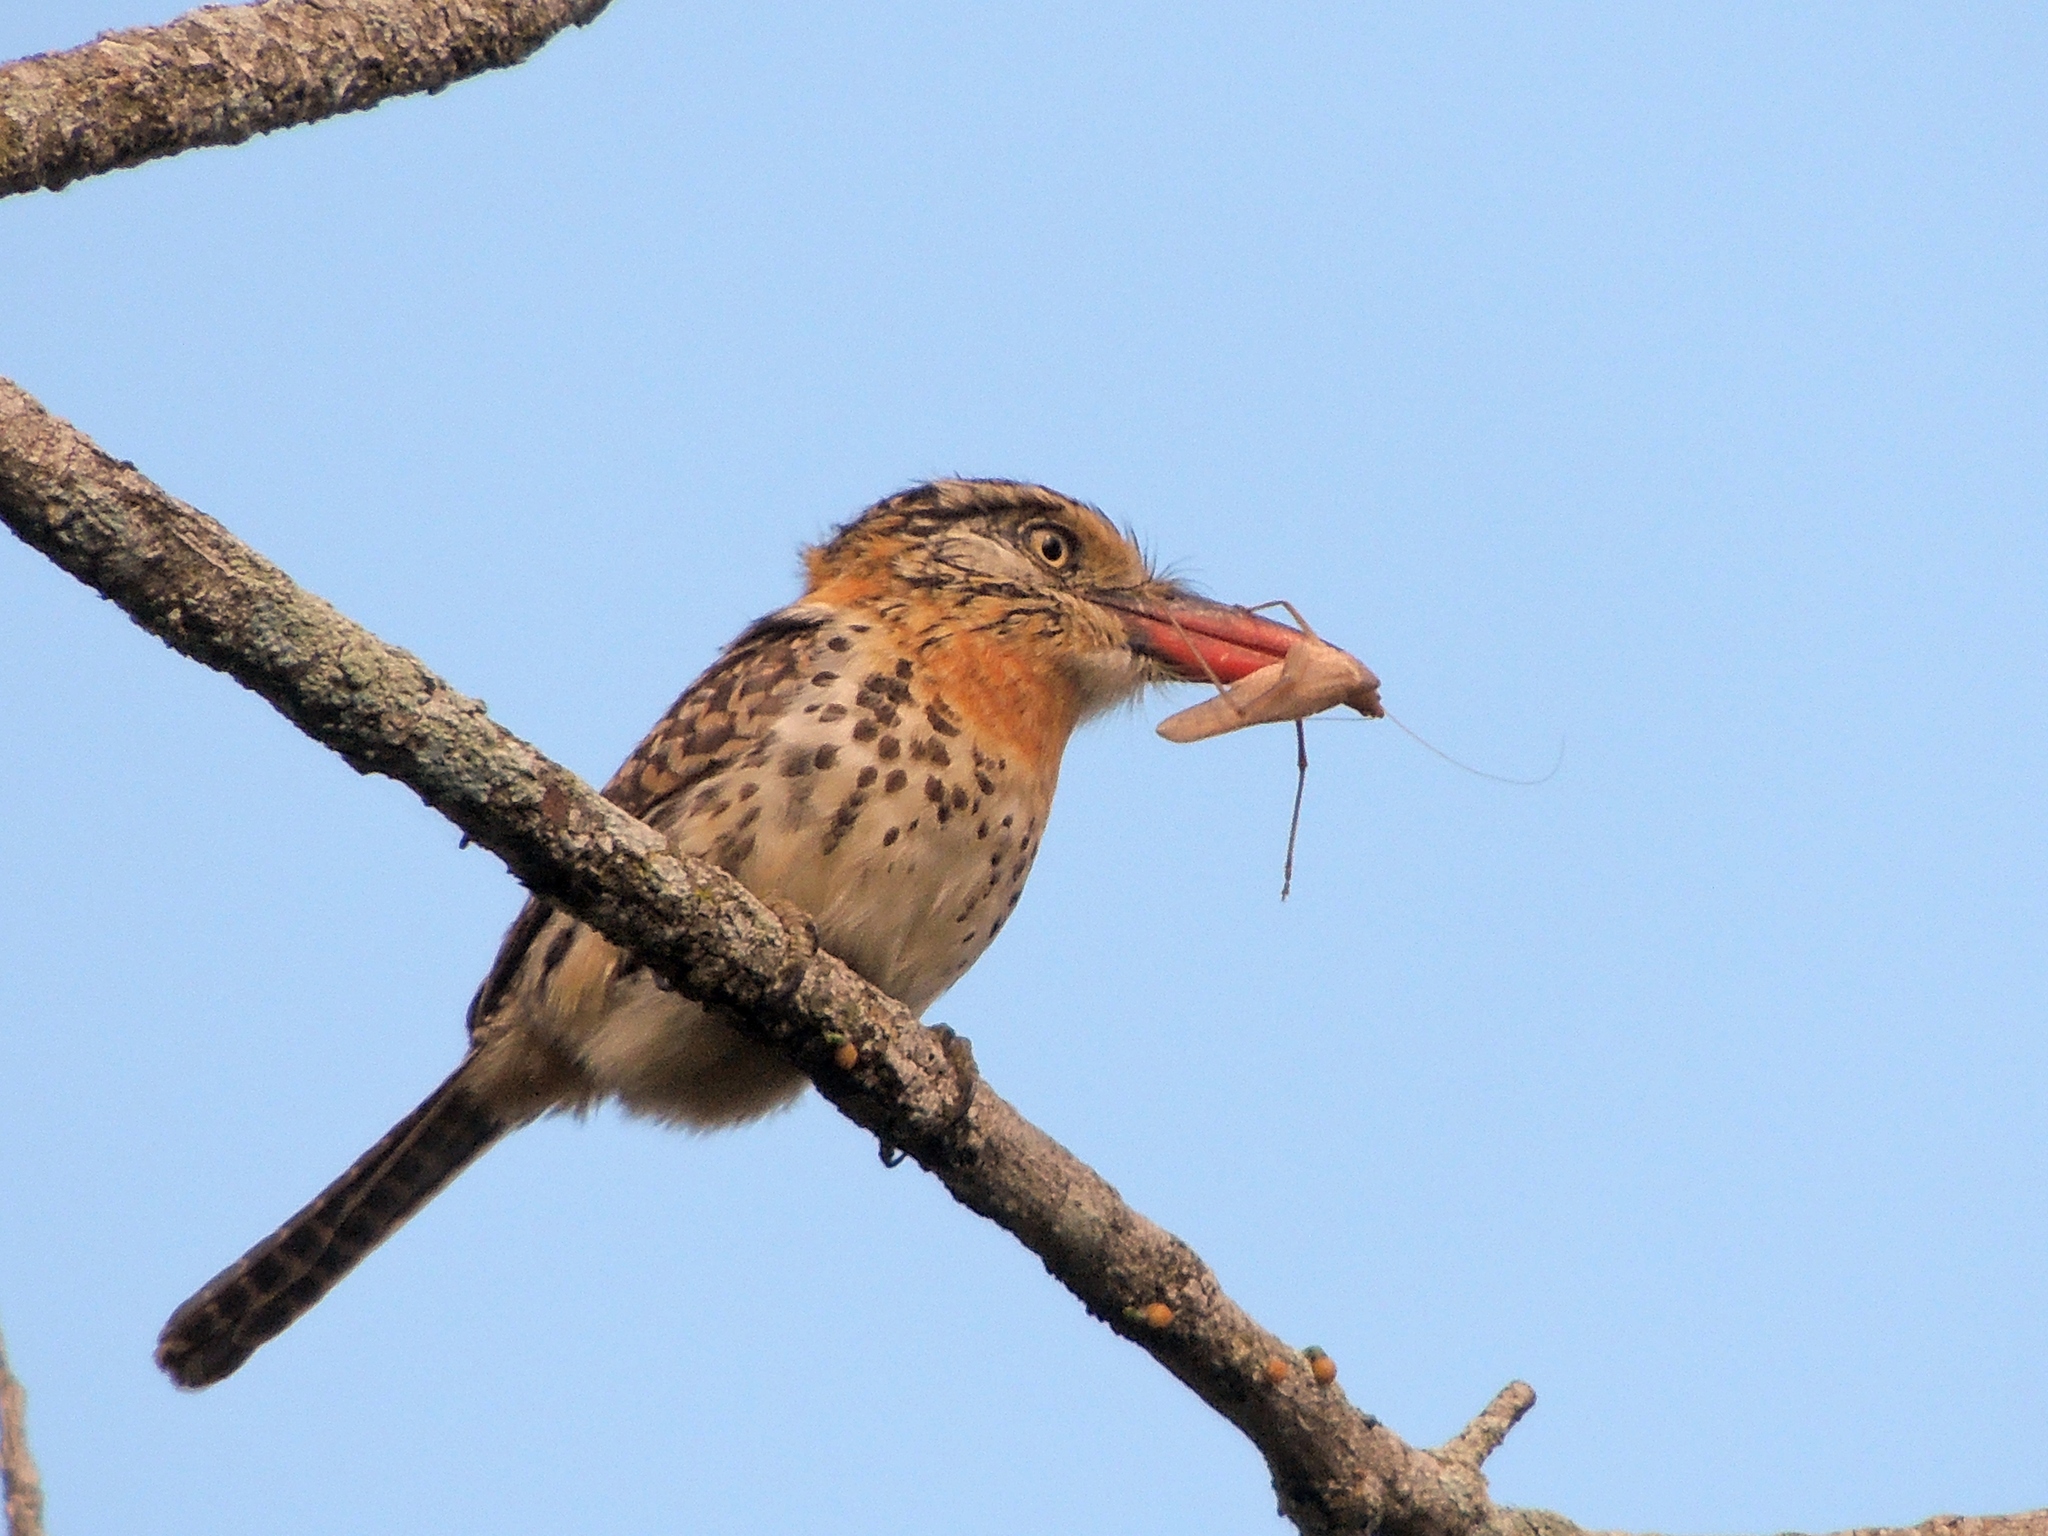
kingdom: Animalia
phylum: Chordata
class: Aves
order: Piciformes
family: Bucconidae
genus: Nystalus
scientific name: Nystalus maculatus
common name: Caatinga puffbird
